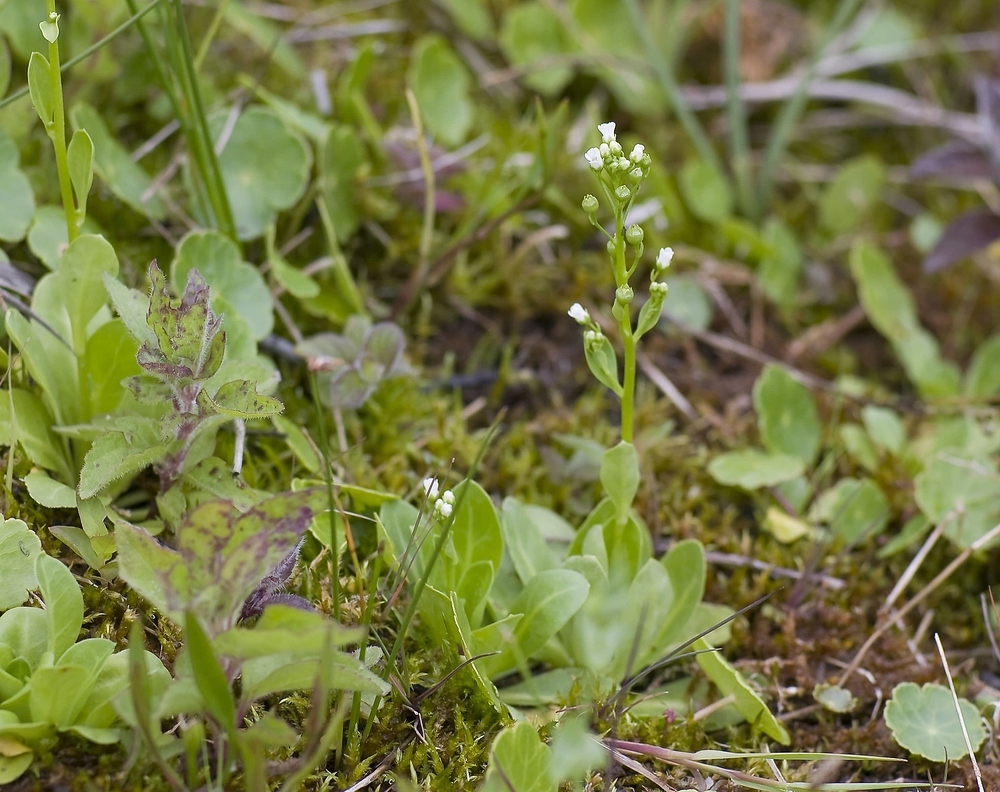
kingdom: Plantae
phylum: Tracheophyta
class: Magnoliopsida
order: Ericales
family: Primulaceae
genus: Samolus
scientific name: Samolus valerandi
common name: Brookweed
